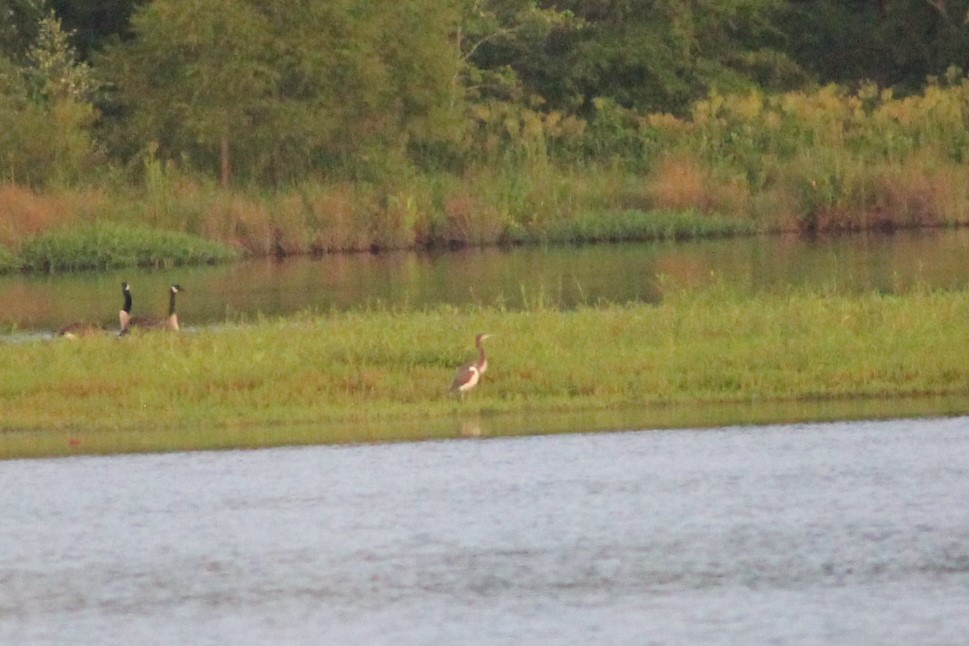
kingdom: Animalia
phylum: Chordata
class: Aves
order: Pelecaniformes
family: Ardeidae
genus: Egretta
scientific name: Egretta tricolor
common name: Tricolored heron
